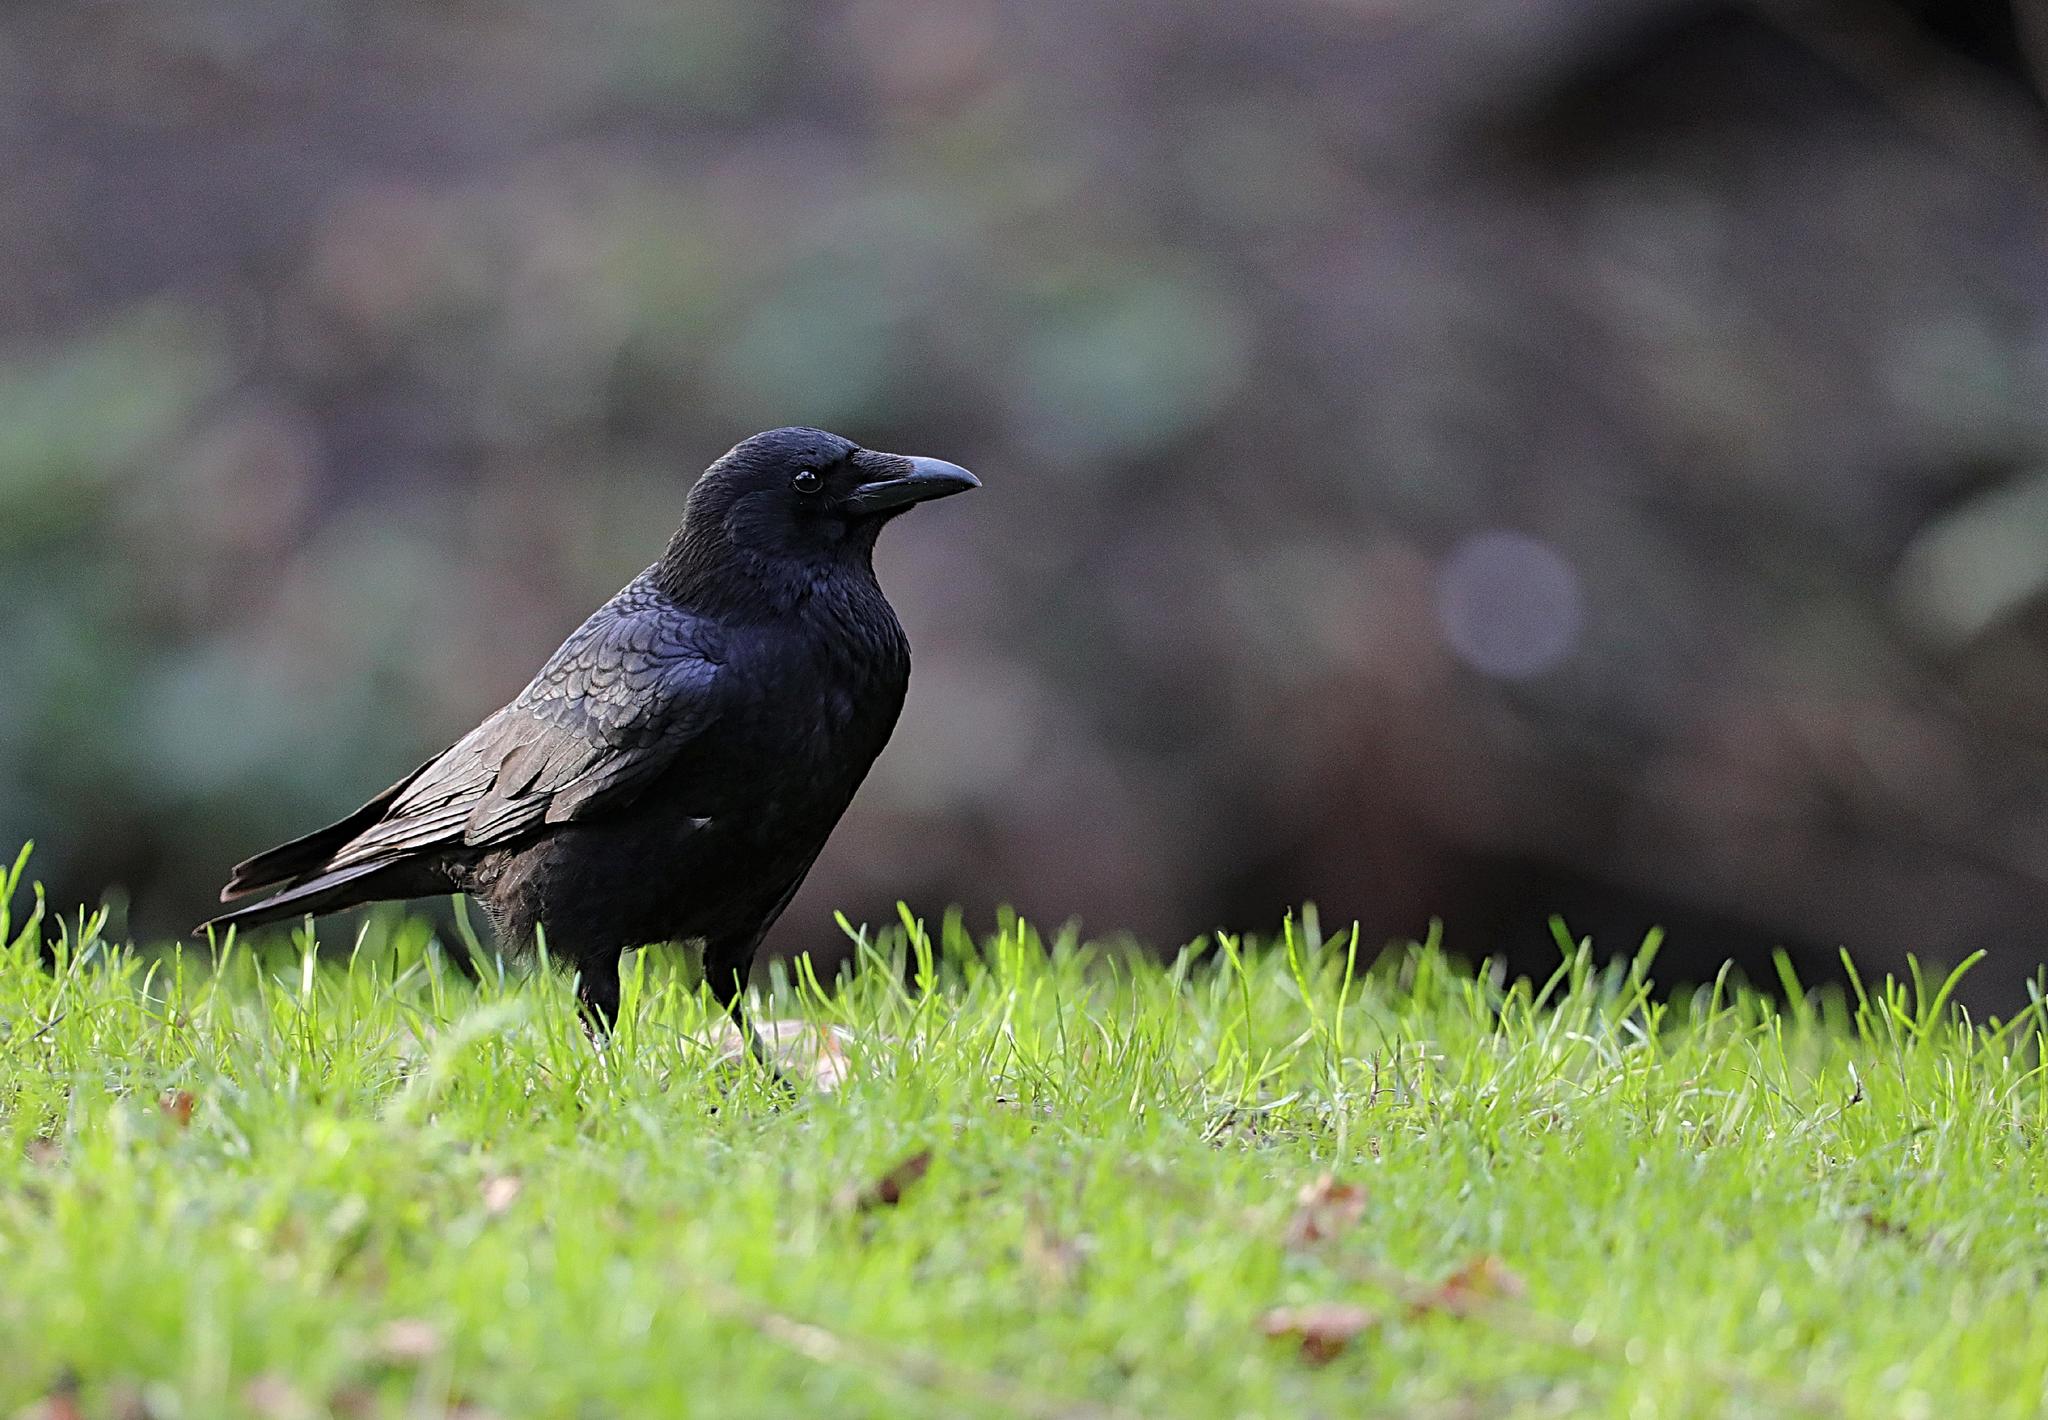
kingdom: Animalia
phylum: Chordata
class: Aves
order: Passeriformes
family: Corvidae
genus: Corvus
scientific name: Corvus corone
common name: Carrion crow
